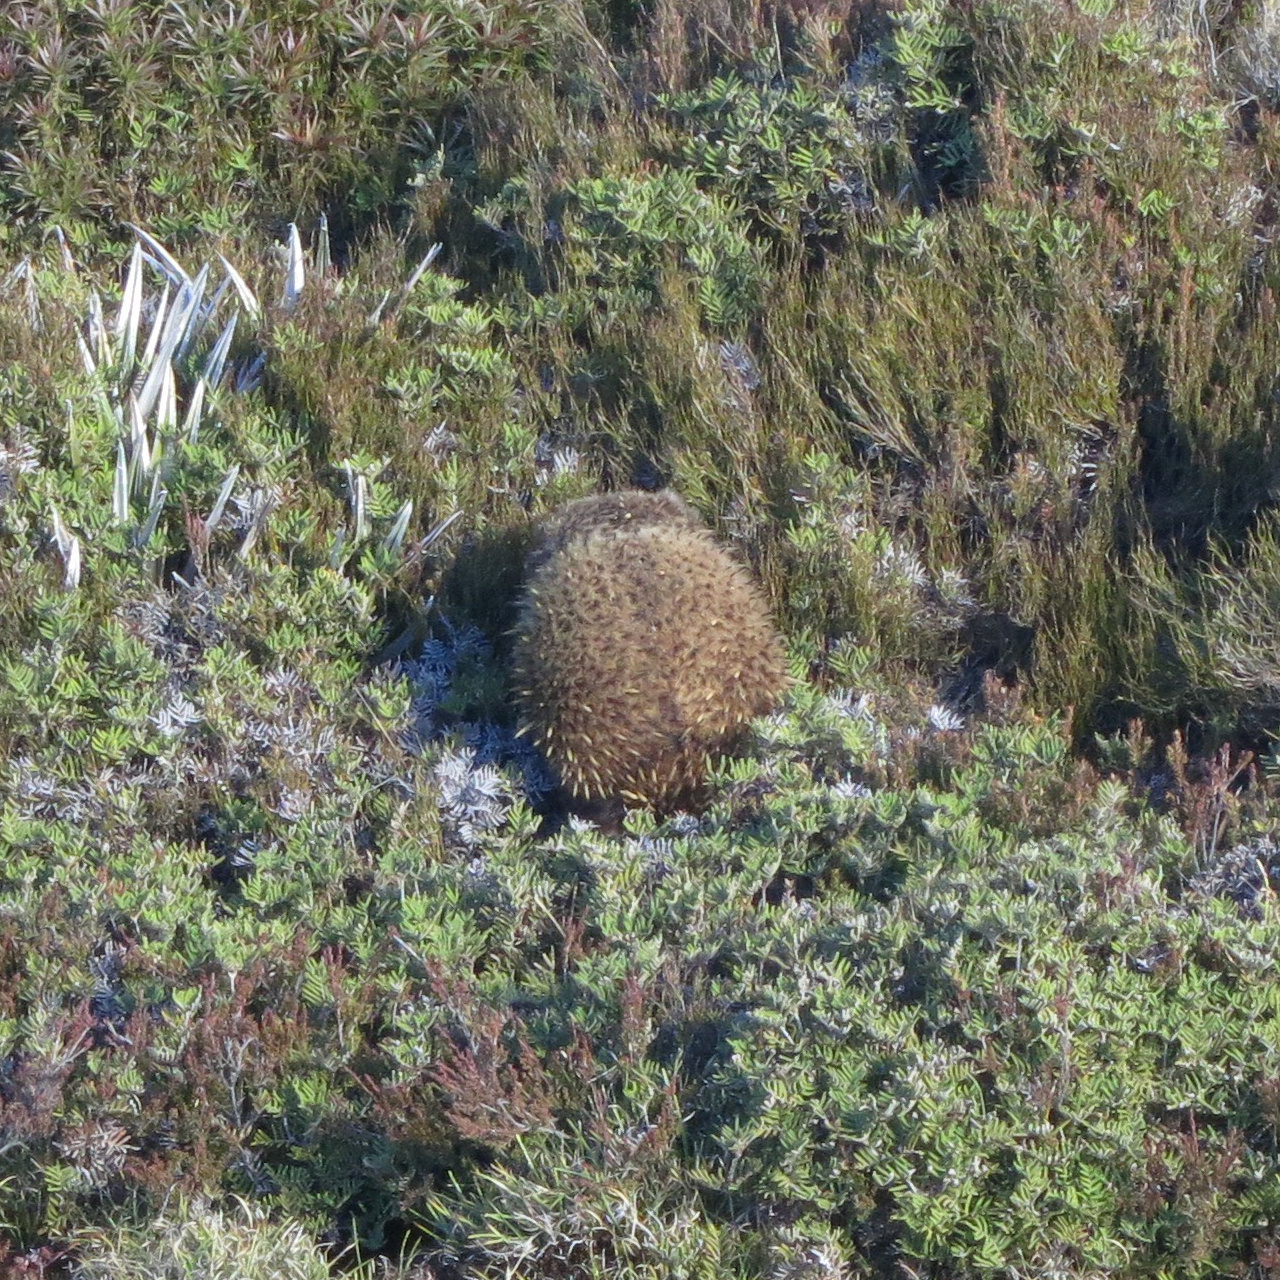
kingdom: Animalia
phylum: Chordata
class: Mammalia
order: Monotremata
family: Tachyglossidae
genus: Tachyglossus
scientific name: Tachyglossus aculeatus
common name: Short-beaked echidna
